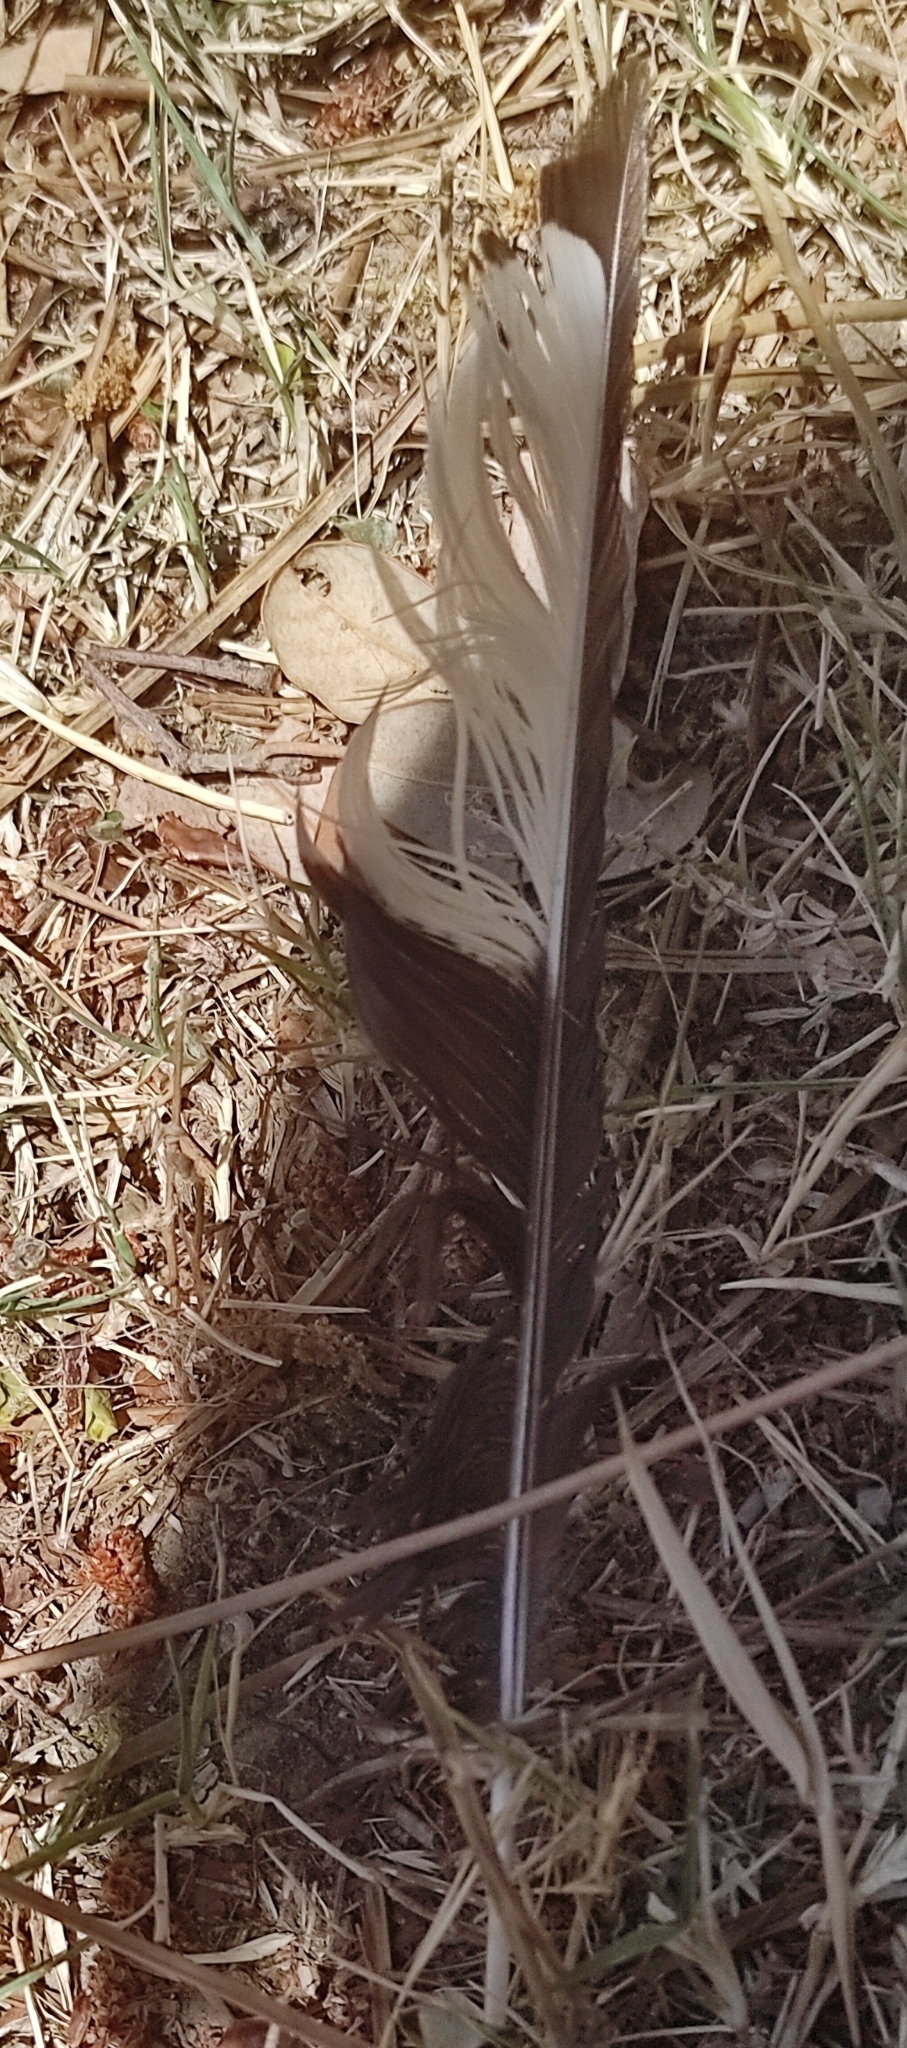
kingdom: Animalia
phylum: Chordata
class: Aves
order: Passeriformes
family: Corvidae
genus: Pica
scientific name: Pica pica
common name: Eurasian magpie
